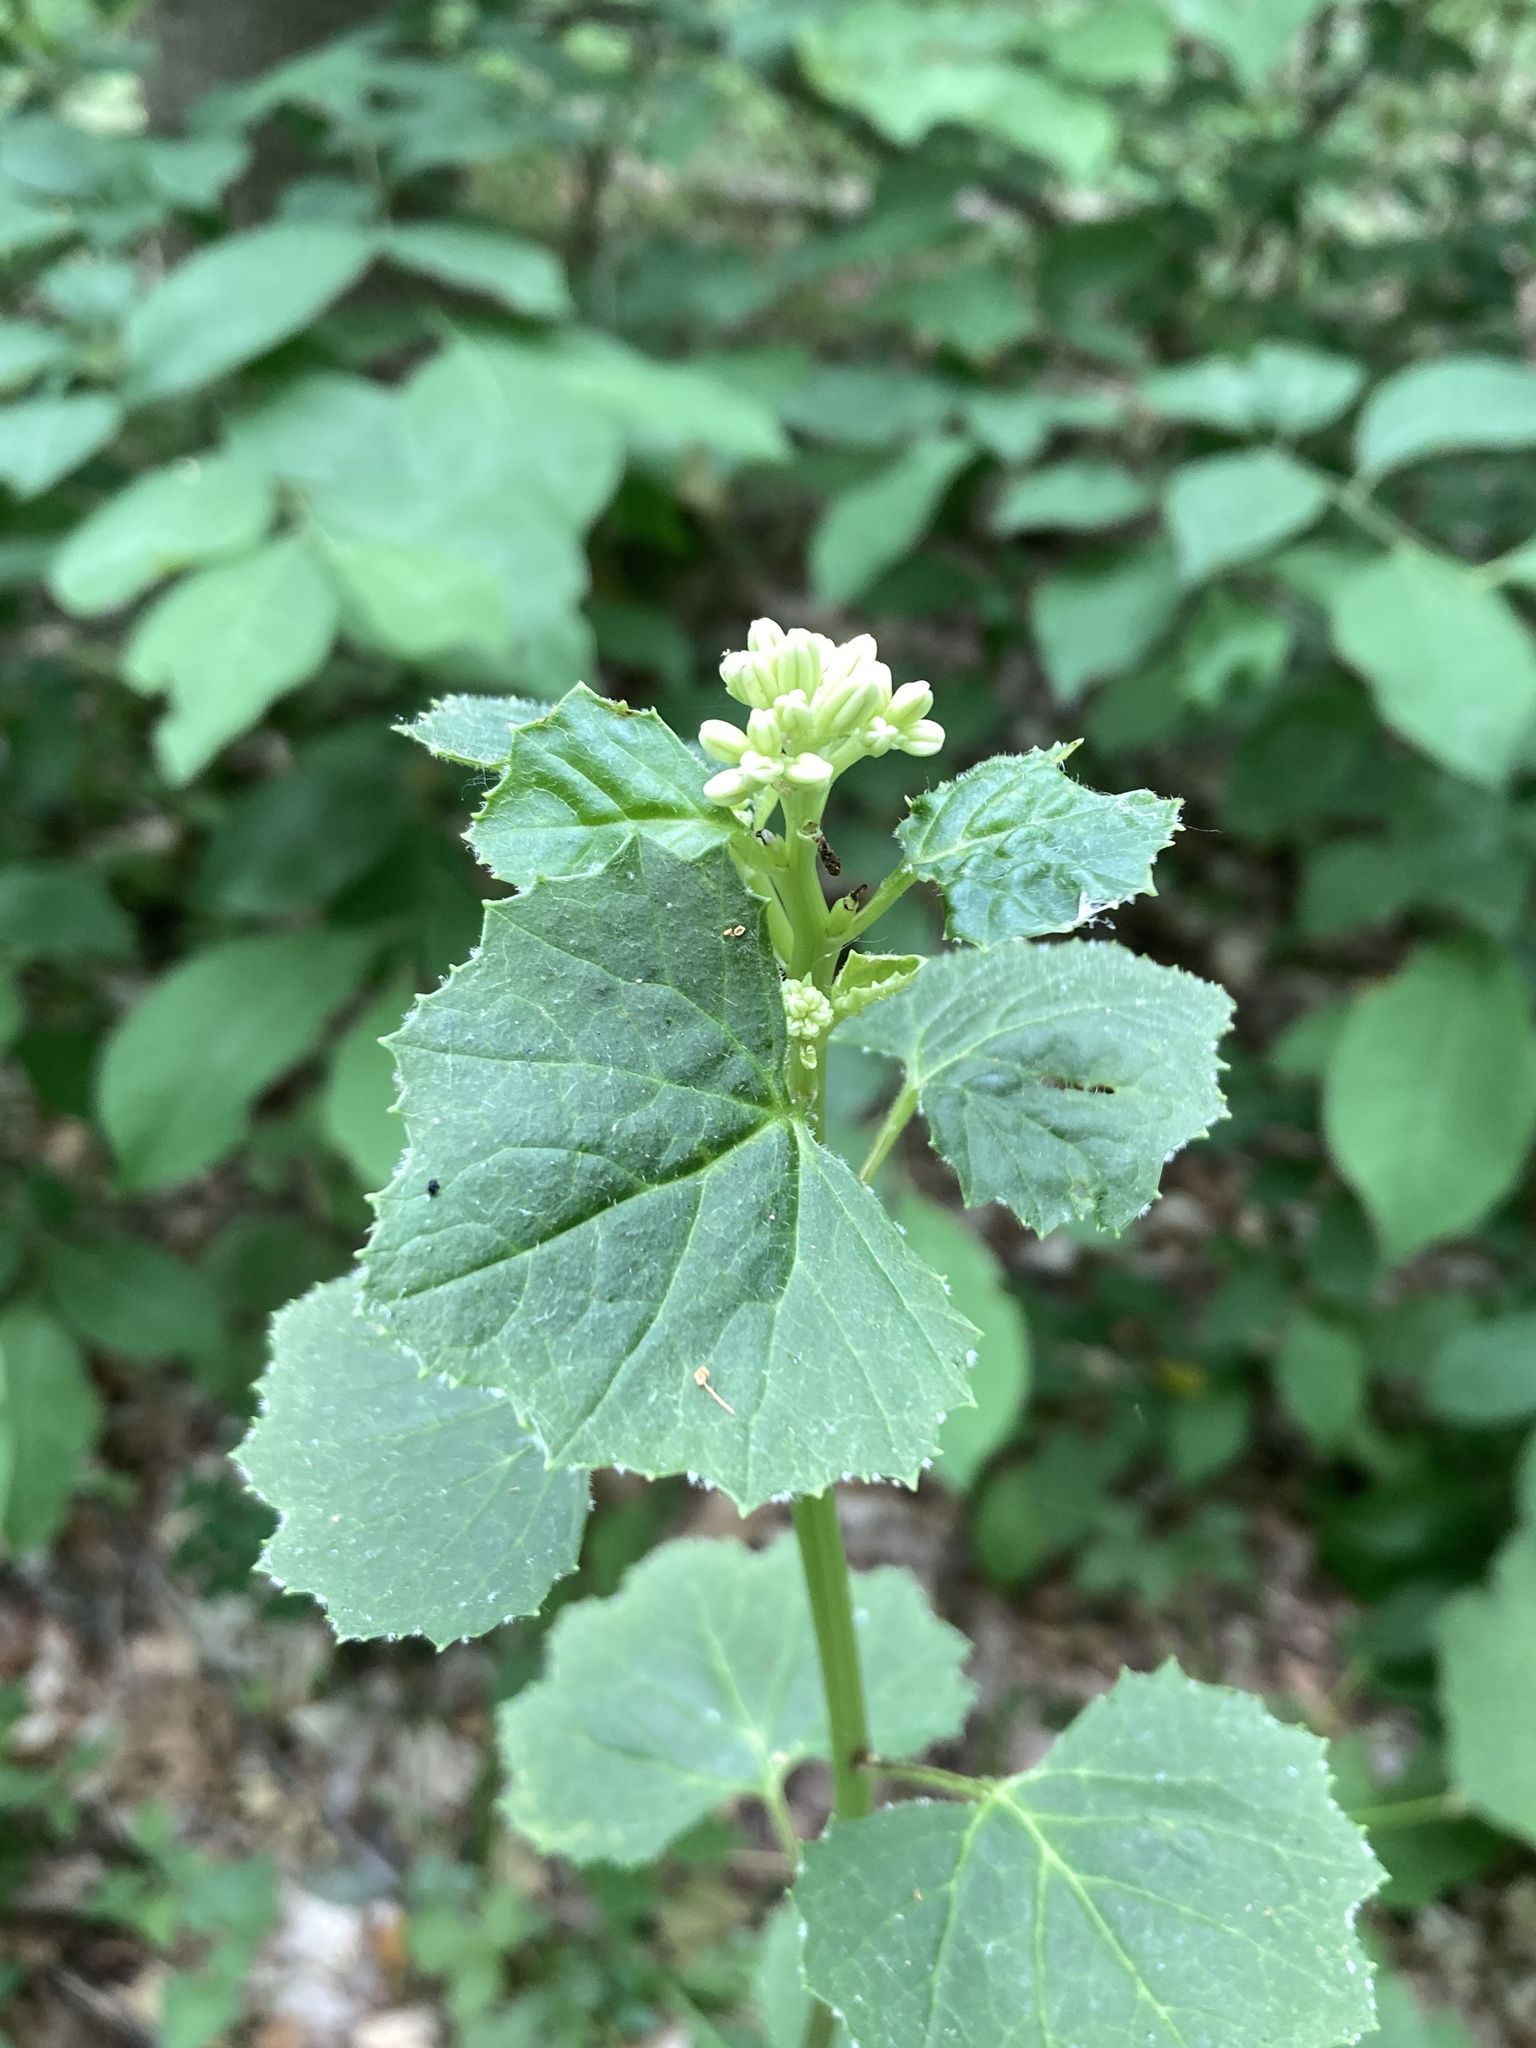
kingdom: Plantae
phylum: Tracheophyta
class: Magnoliopsida
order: Asterales
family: Asteraceae
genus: Arnoglossum
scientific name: Arnoglossum reniforme
